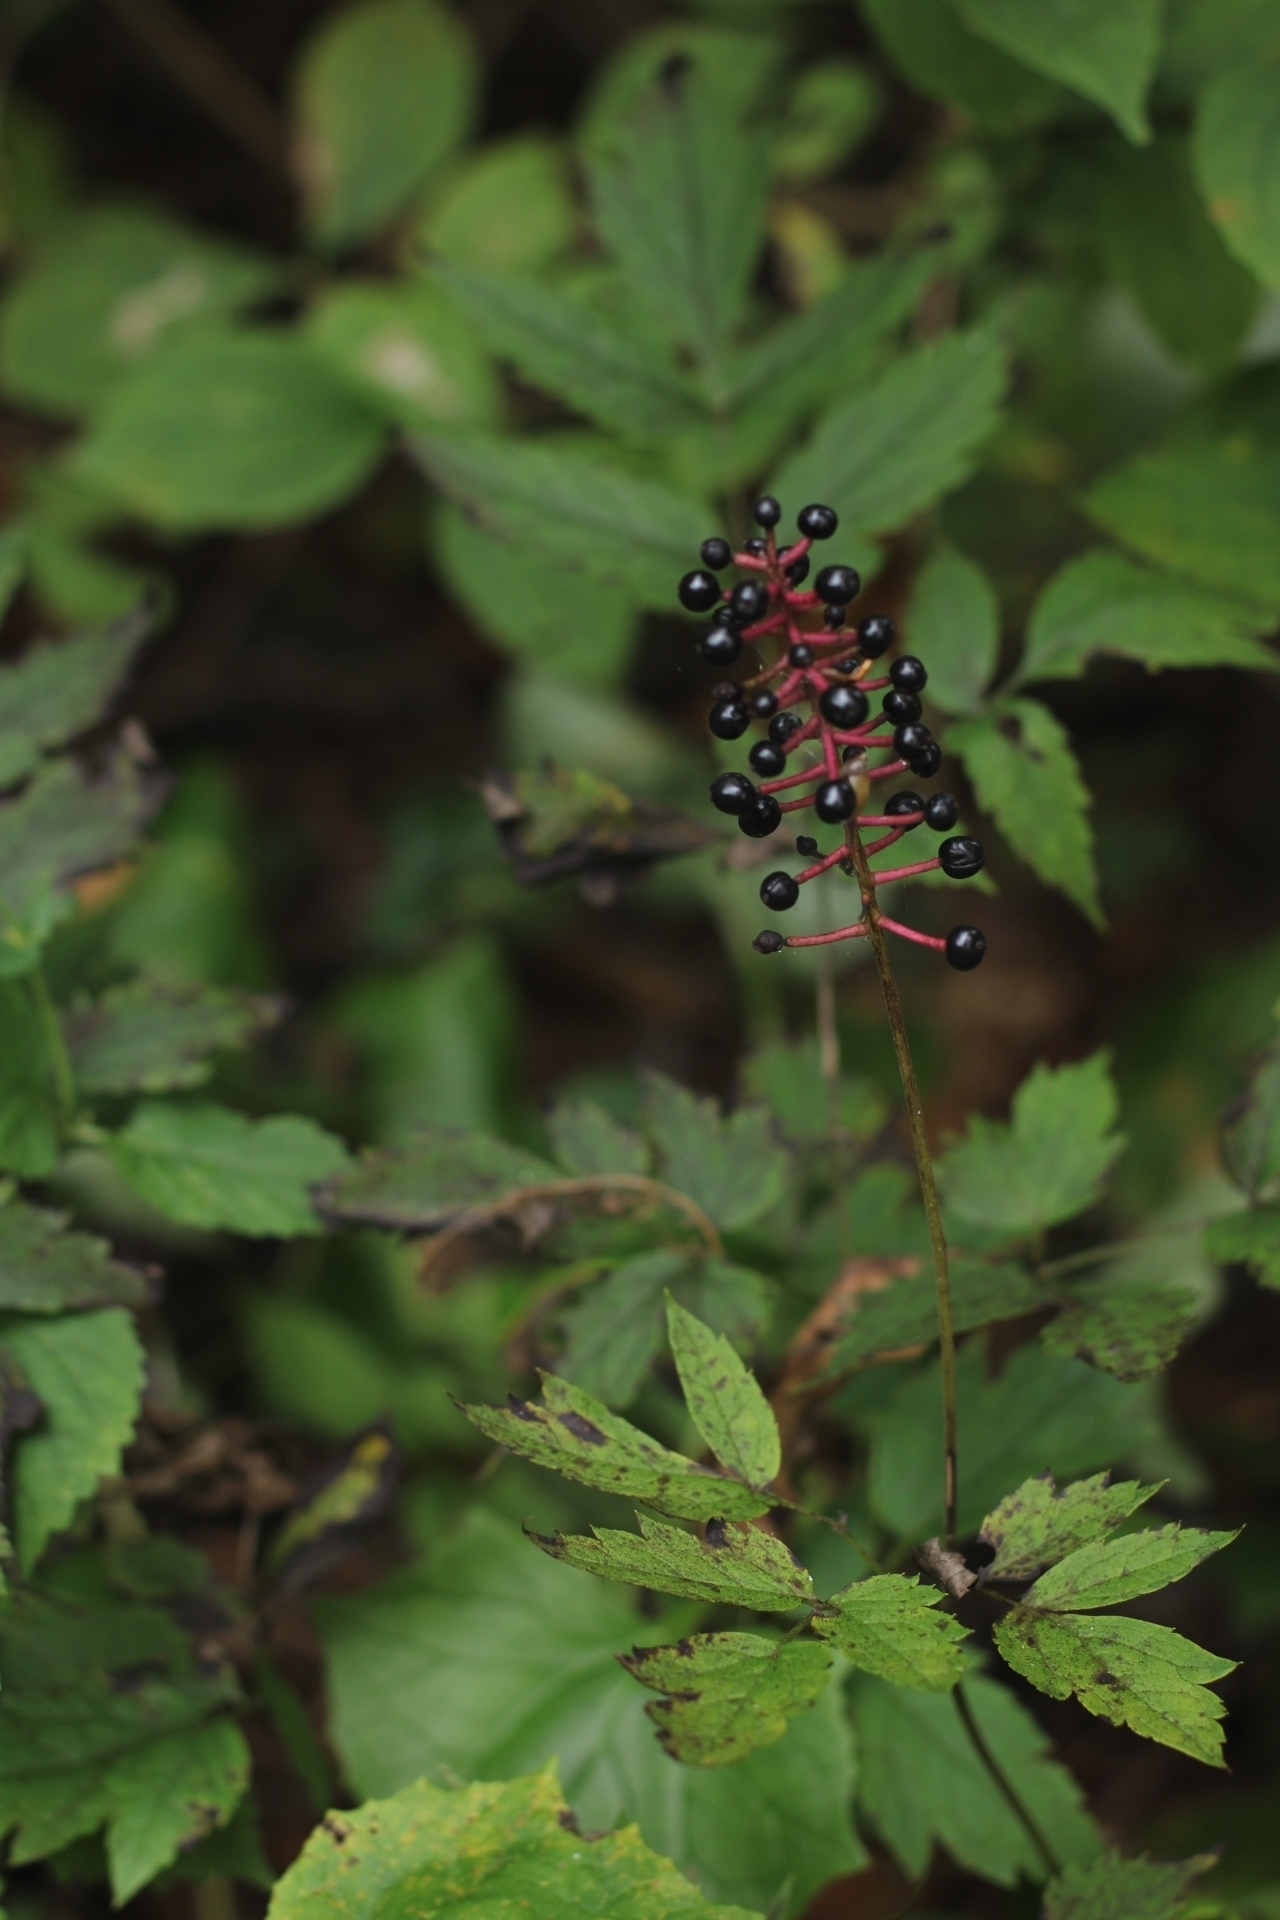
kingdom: Plantae
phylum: Tracheophyta
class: Magnoliopsida
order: Ranunculales
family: Ranunculaceae
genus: Actaea
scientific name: Actaea asiatica
